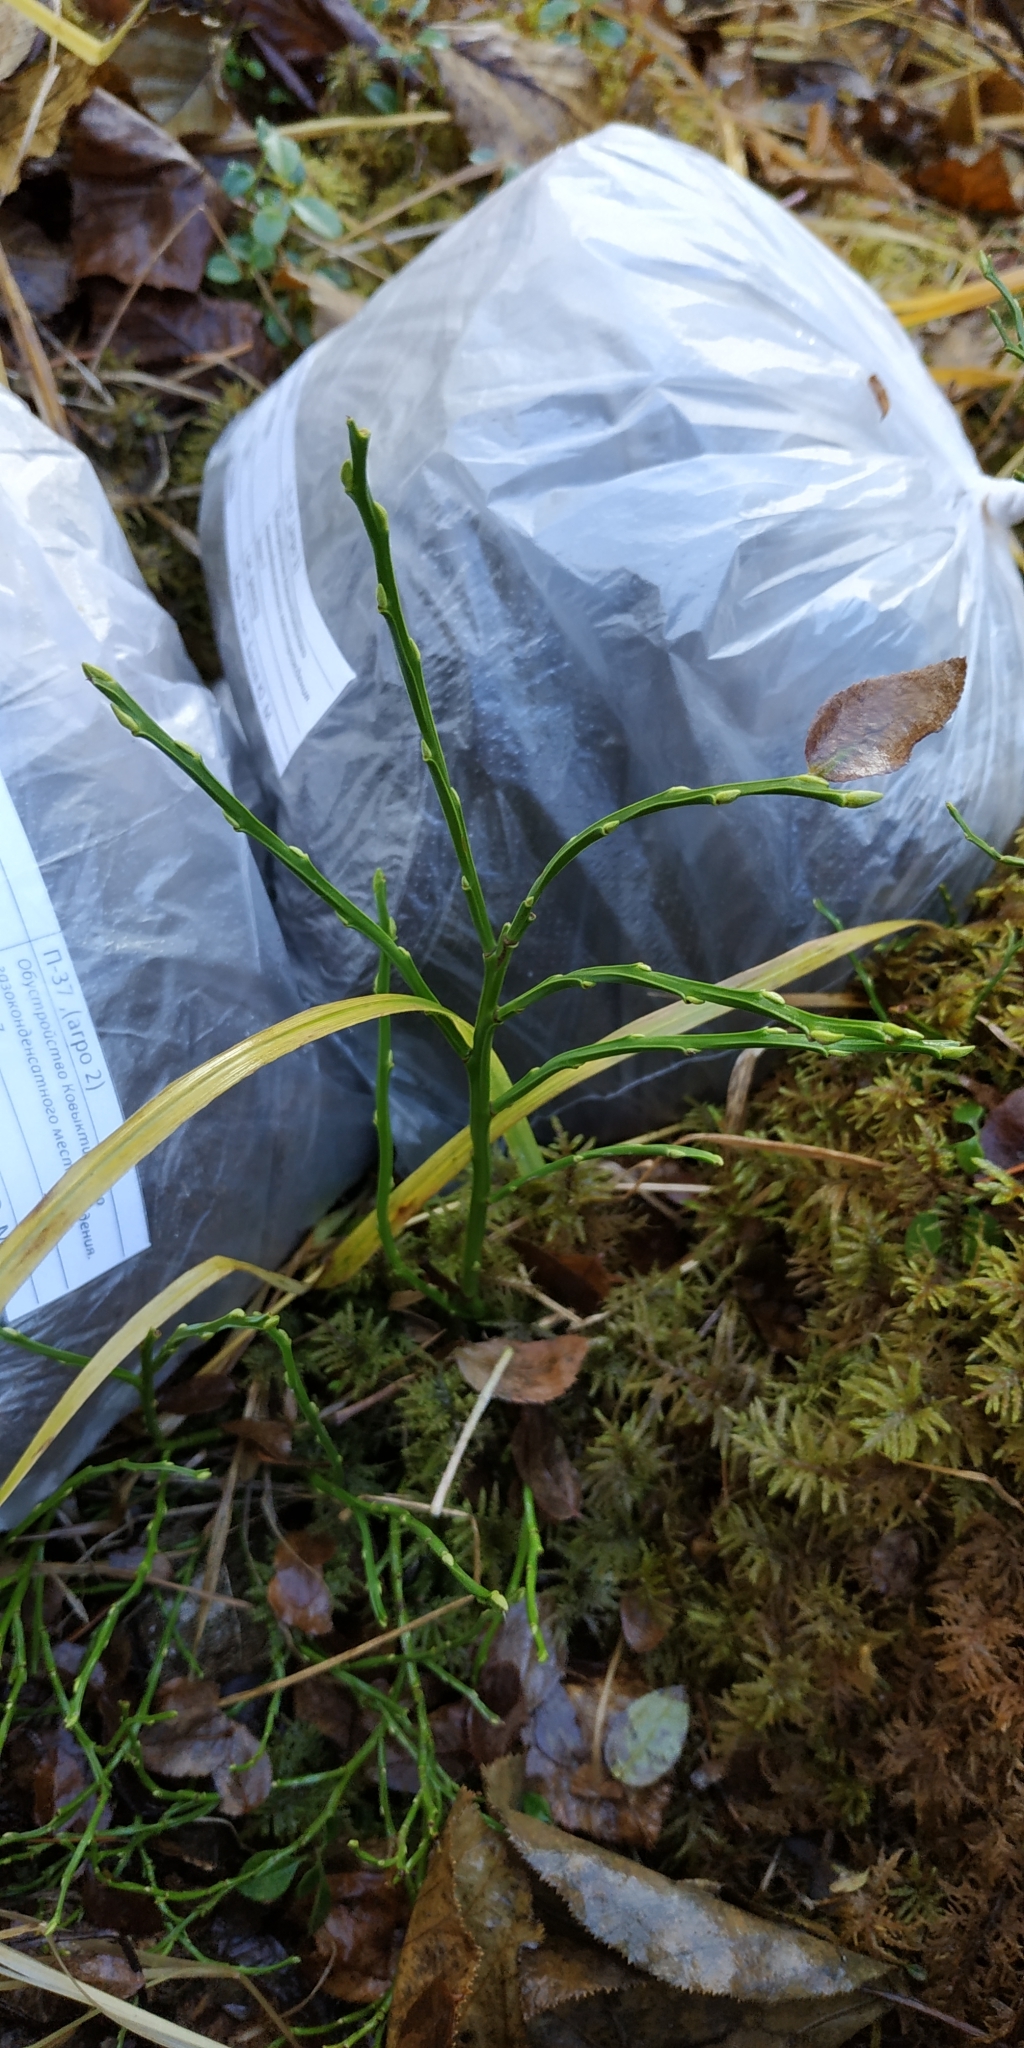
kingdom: Plantae
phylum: Tracheophyta
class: Magnoliopsida
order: Ericales
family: Ericaceae
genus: Vaccinium
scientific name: Vaccinium myrtillus
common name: Bilberry
